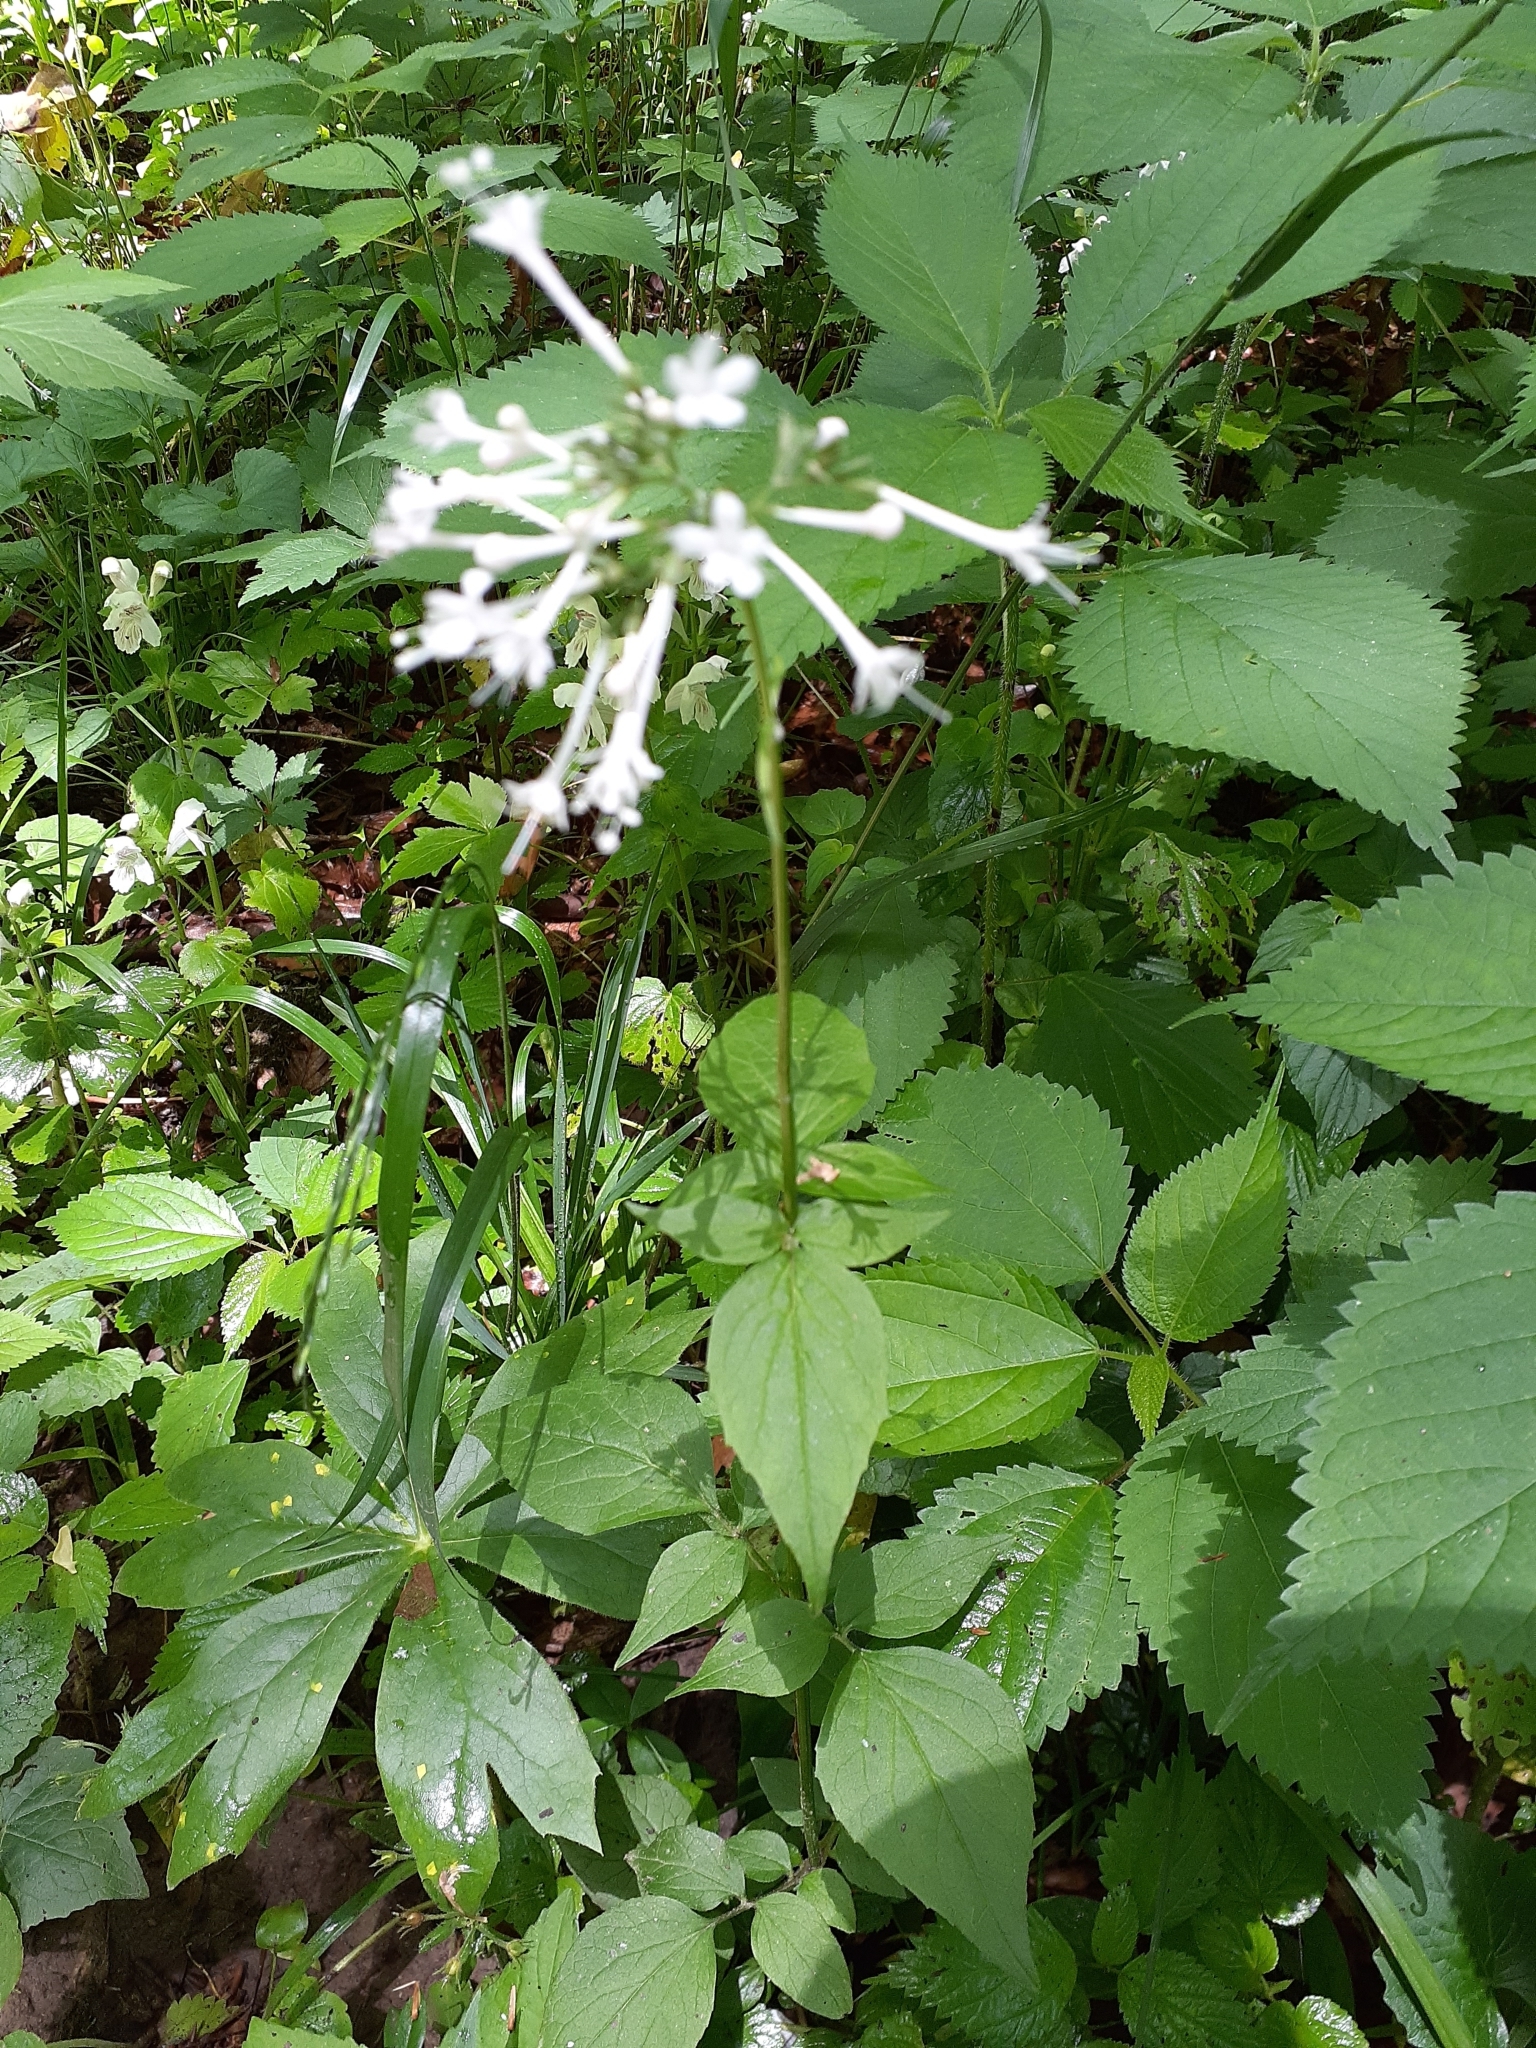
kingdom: Plantae
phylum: Tracheophyta
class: Magnoliopsida
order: Dipsacales
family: Caprifoliaceae
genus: Valeriana
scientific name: Valeriana pauciflora
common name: Long-tube valeriana
